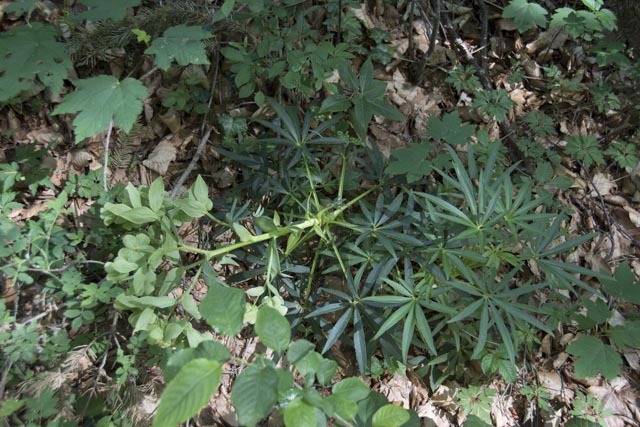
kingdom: Plantae
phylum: Tracheophyta
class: Magnoliopsida
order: Ranunculales
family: Ranunculaceae
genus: Helleborus
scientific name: Helleborus foetidus
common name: Stinking hellebore
